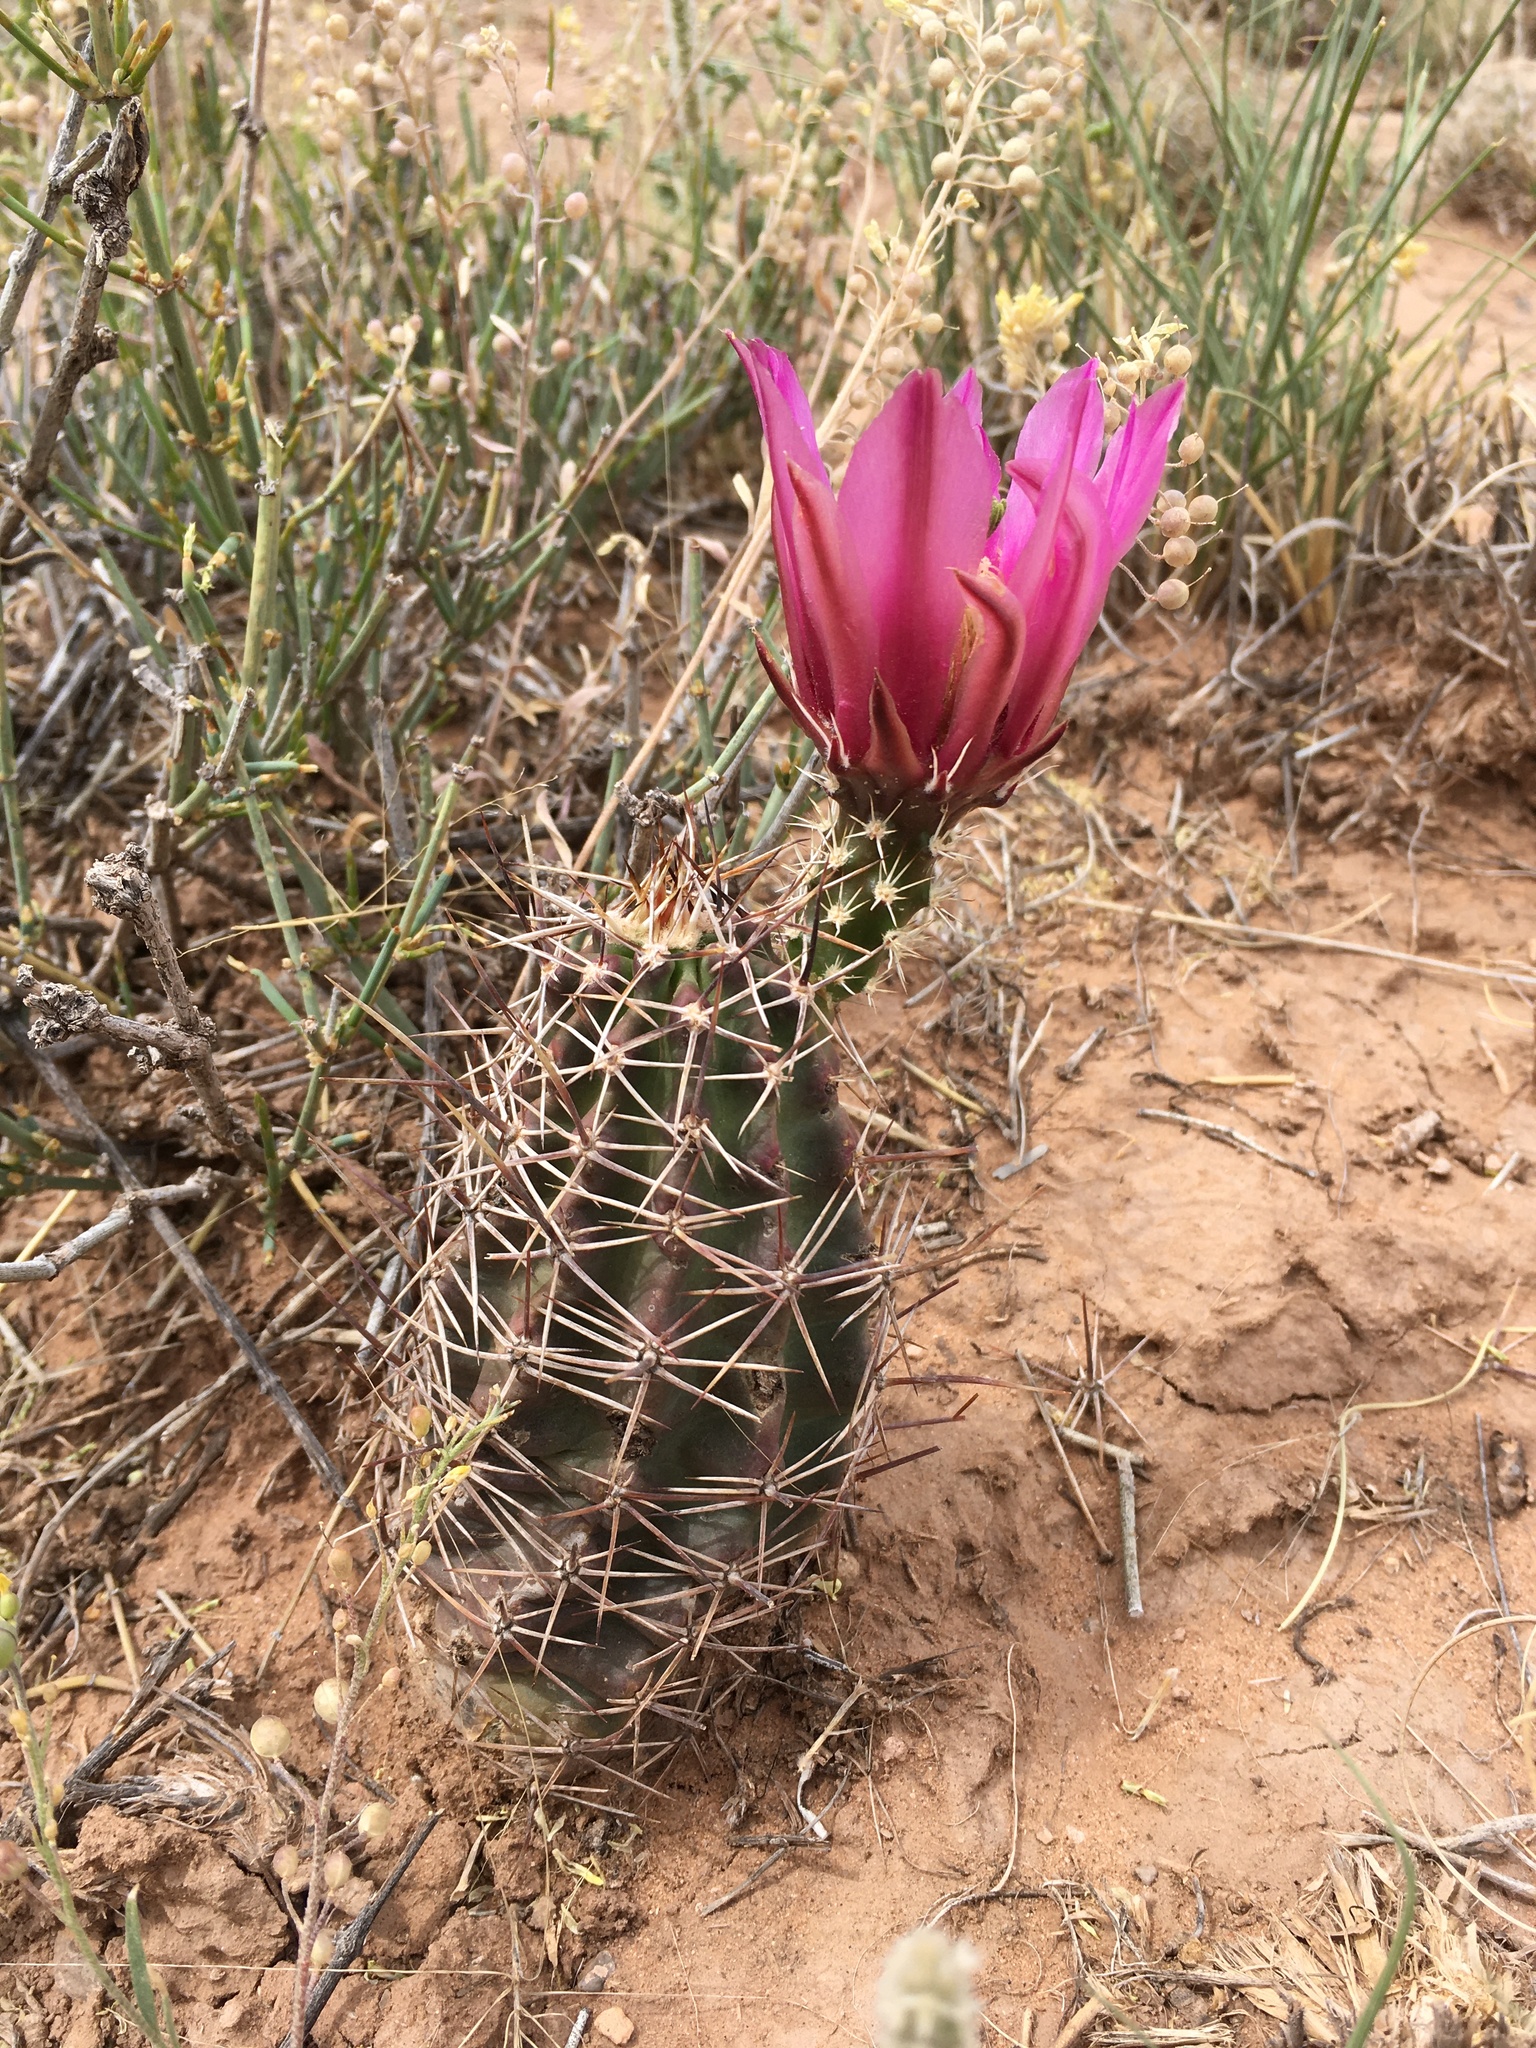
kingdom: Plantae
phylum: Tracheophyta
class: Magnoliopsida
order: Caryophyllales
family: Cactaceae
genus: Echinocereus
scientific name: Echinocereus fendleri
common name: Fendler's hedgehog cactus
